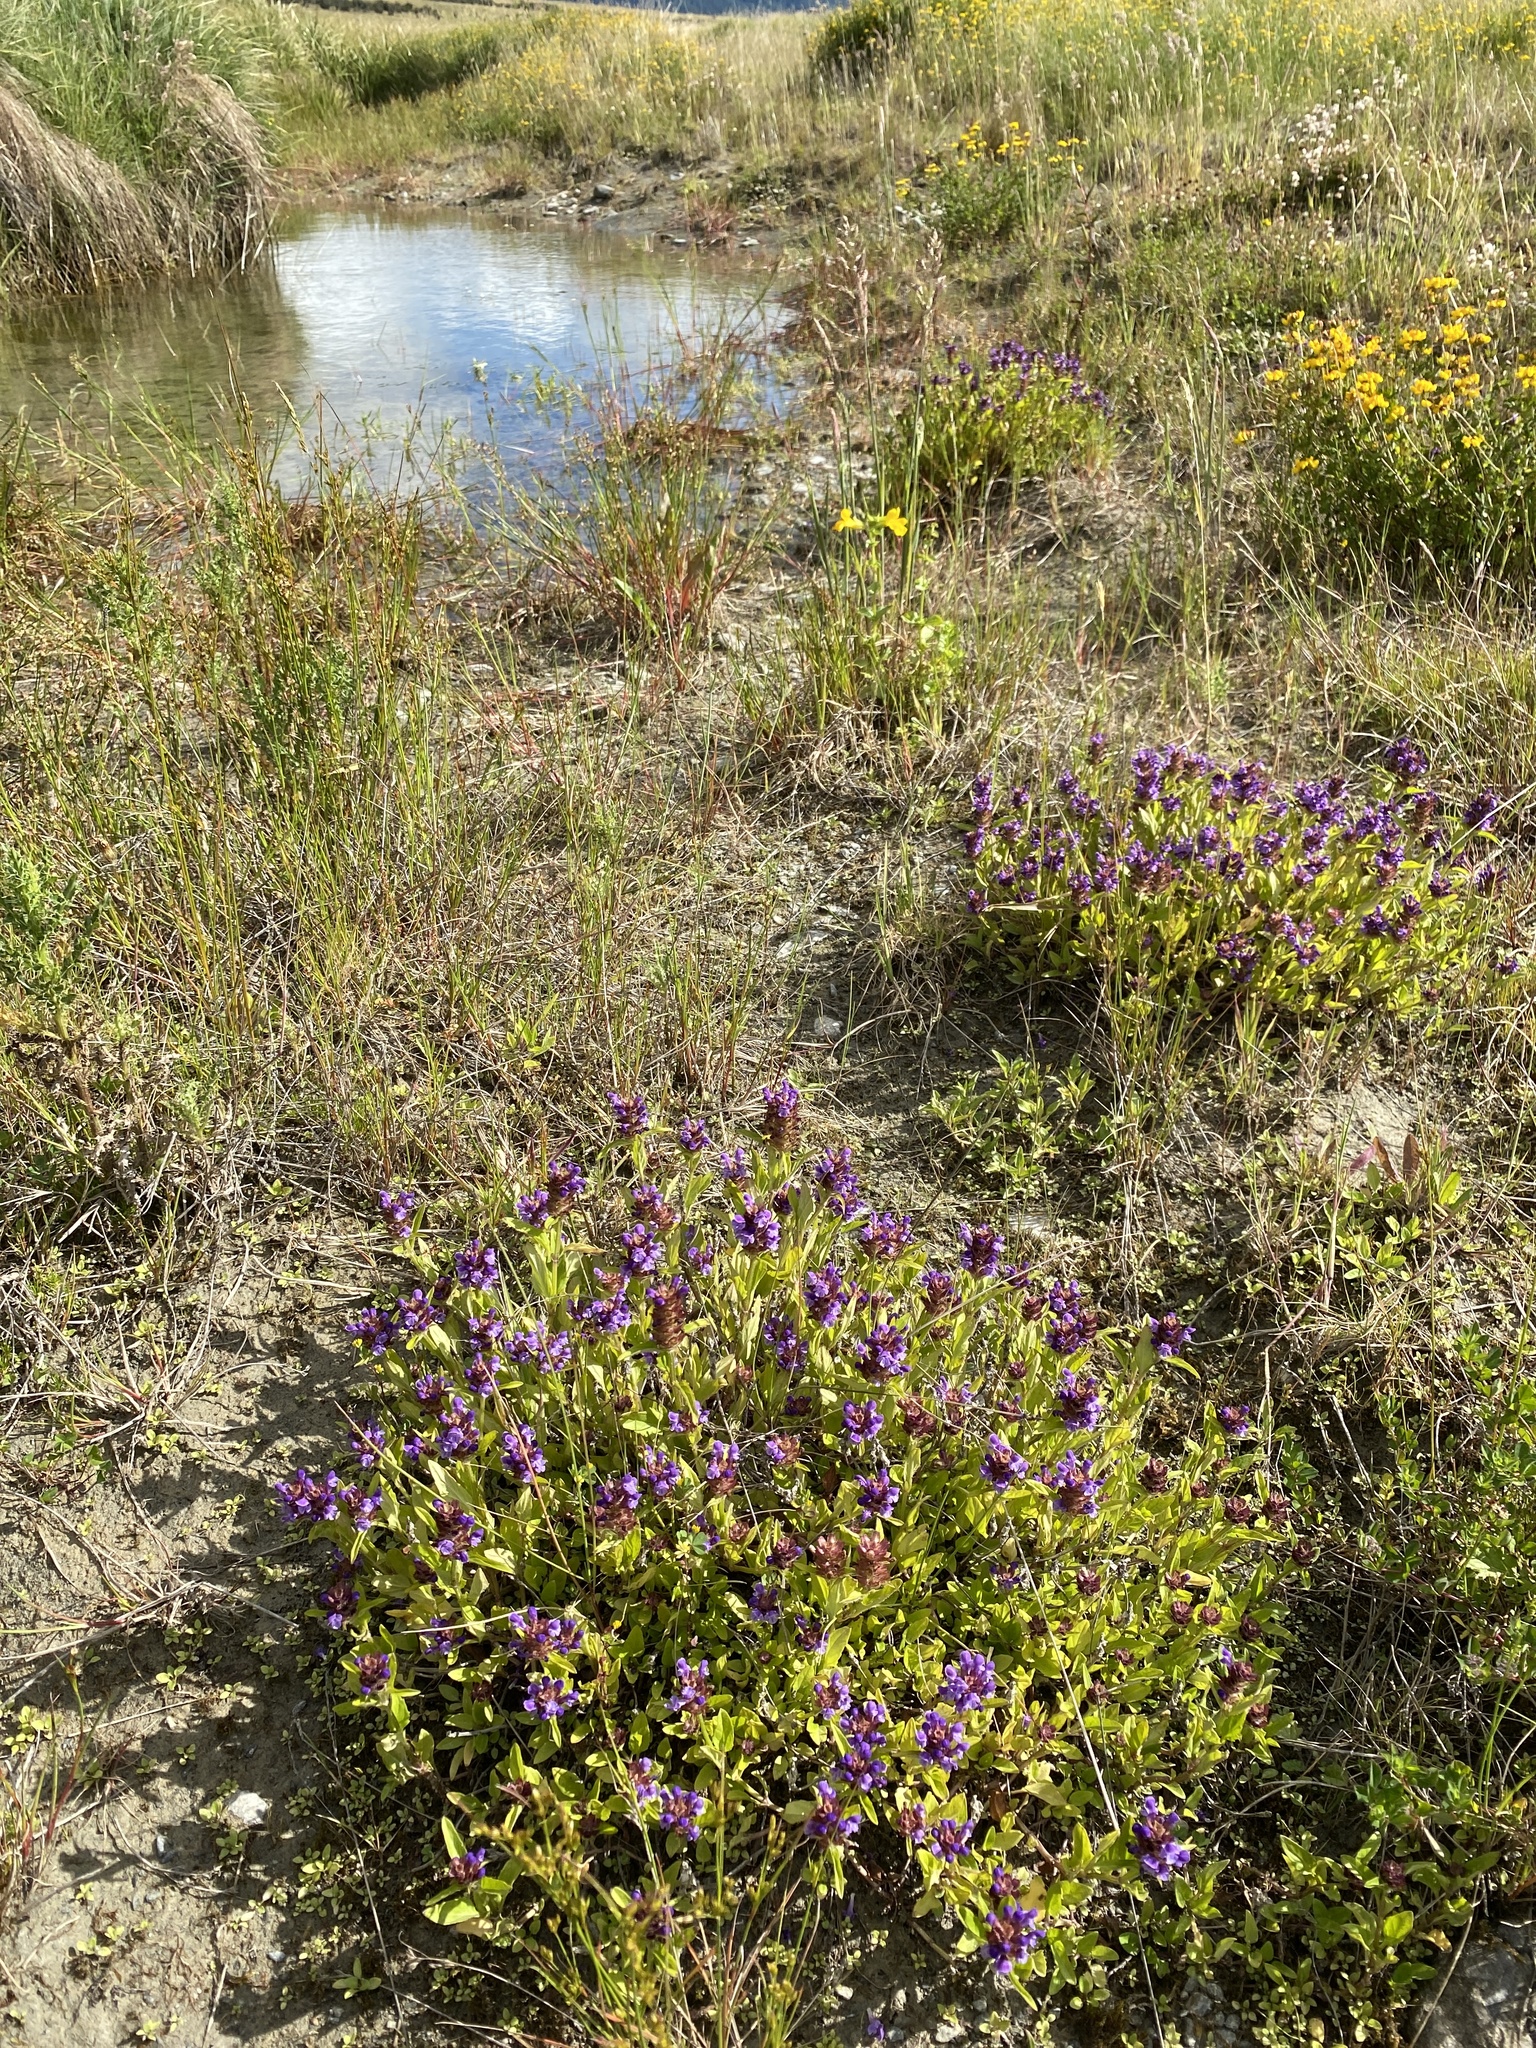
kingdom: Plantae
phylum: Tracheophyta
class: Magnoliopsida
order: Lamiales
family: Lamiaceae
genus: Prunella
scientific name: Prunella vulgaris
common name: Heal-all
